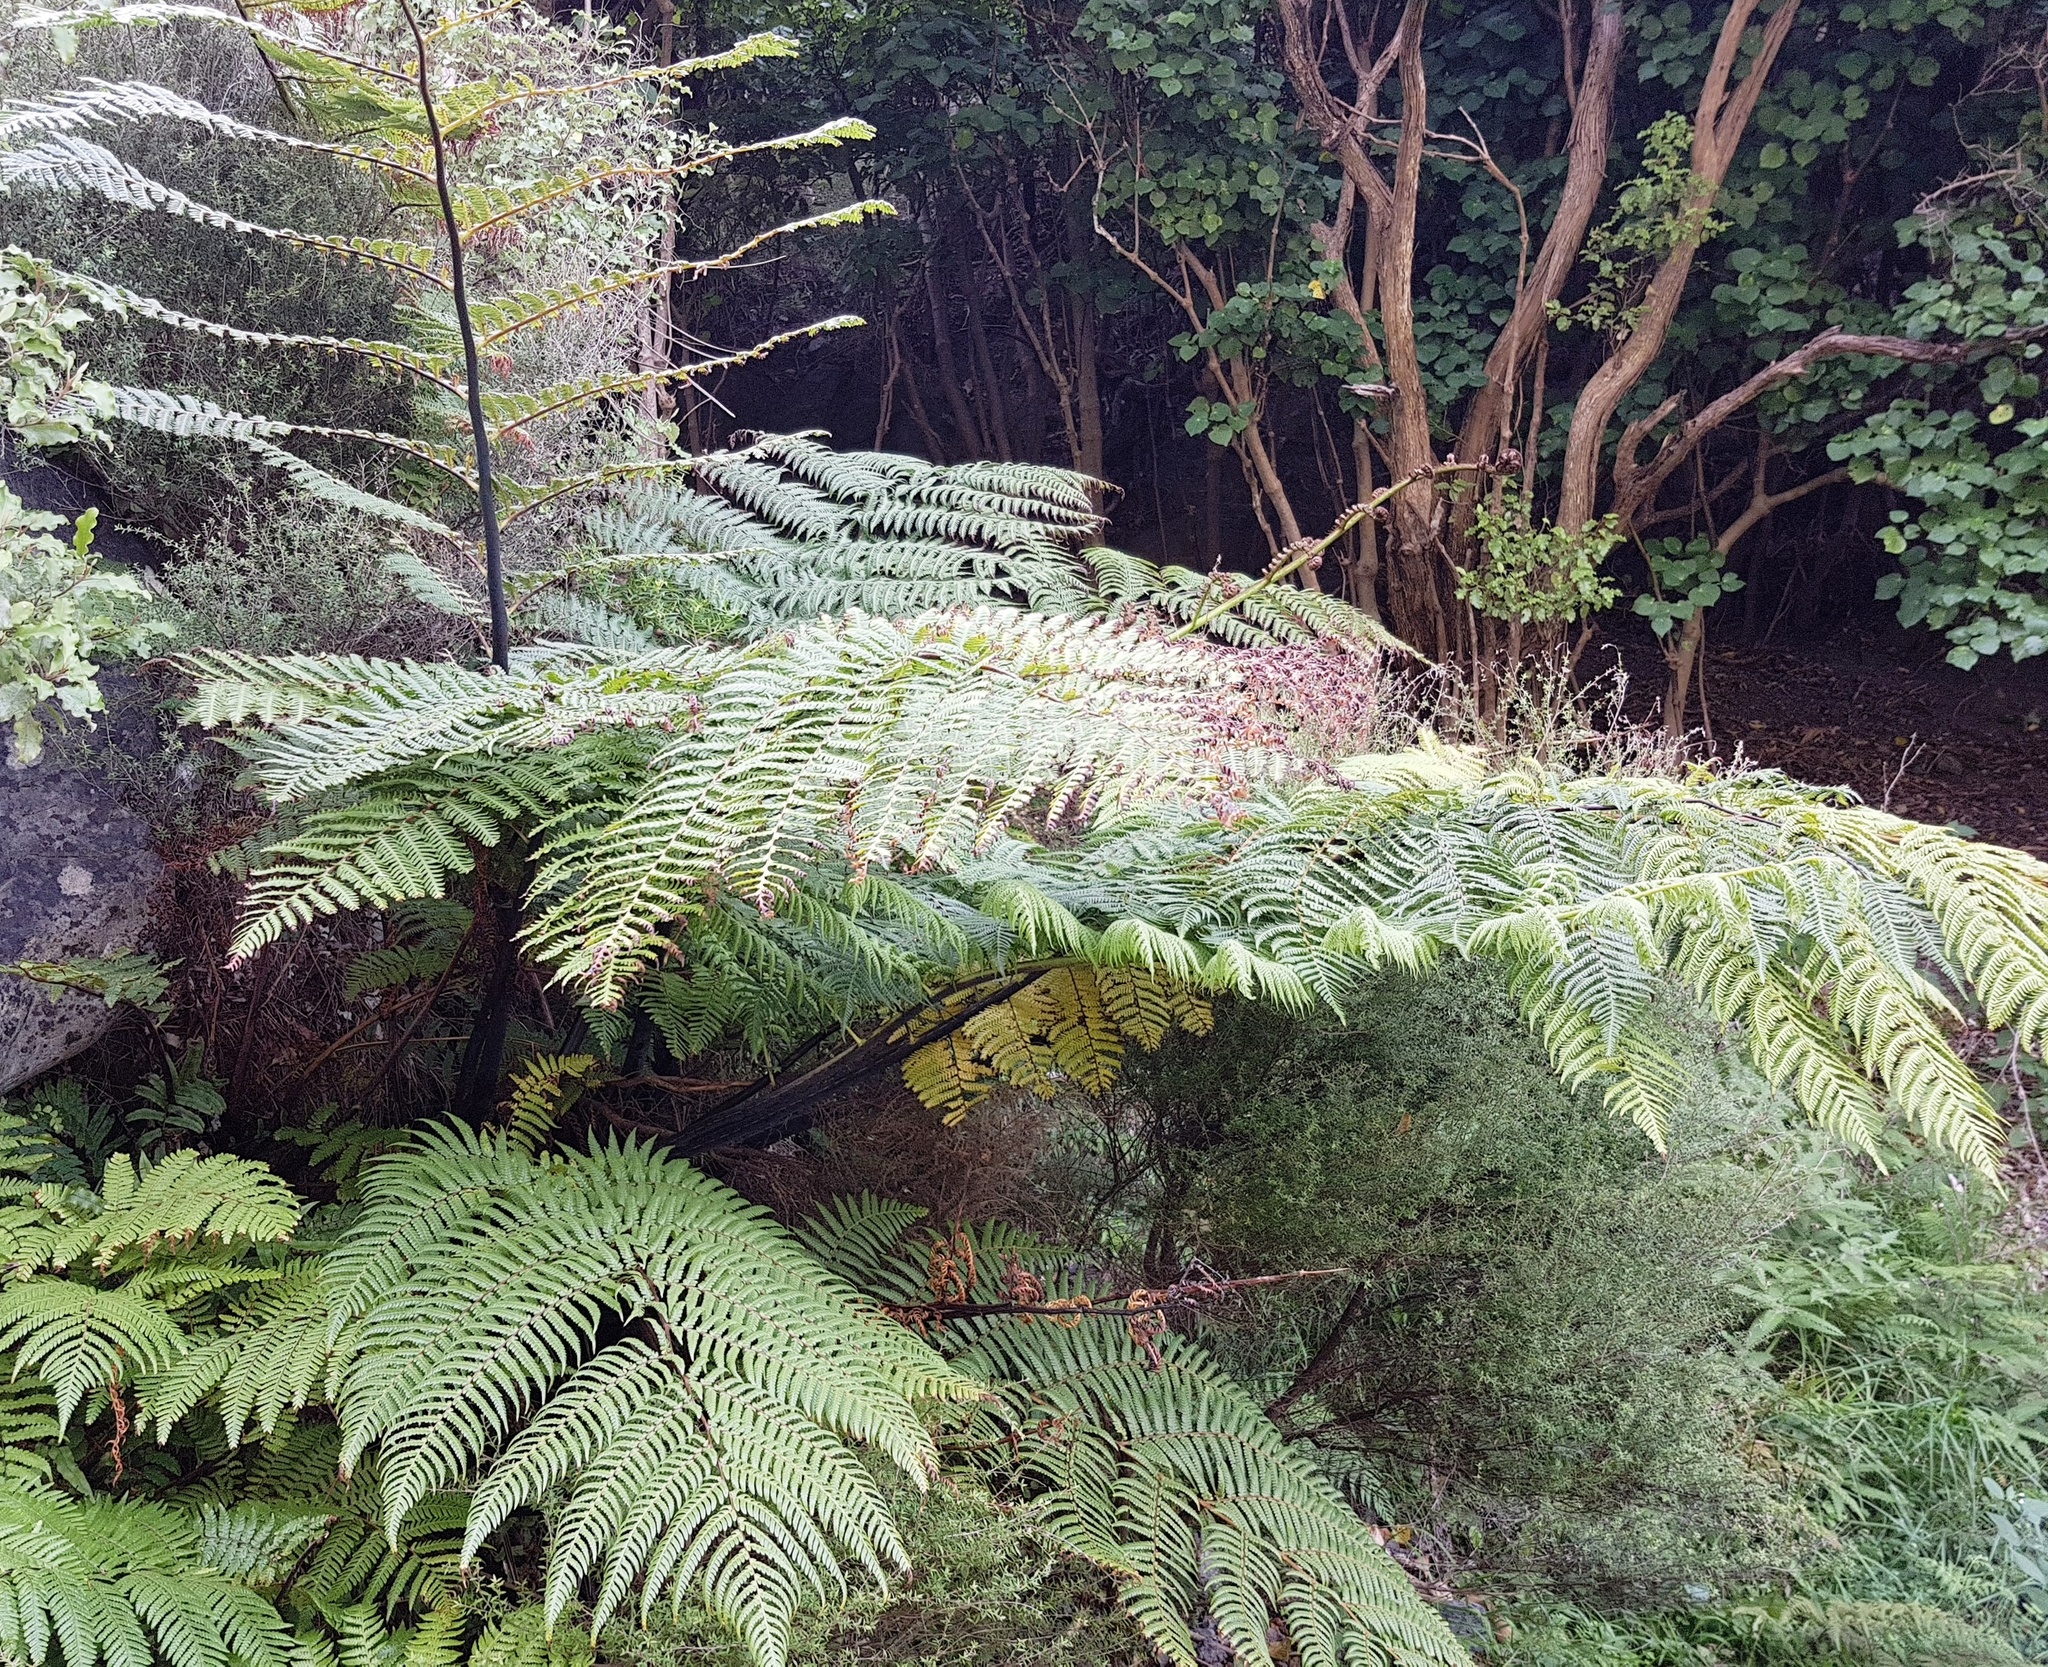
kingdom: Plantae
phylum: Tracheophyta
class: Polypodiopsida
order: Cyatheales
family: Cyatheaceae
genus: Sphaeropteris
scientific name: Sphaeropteris medullaris
